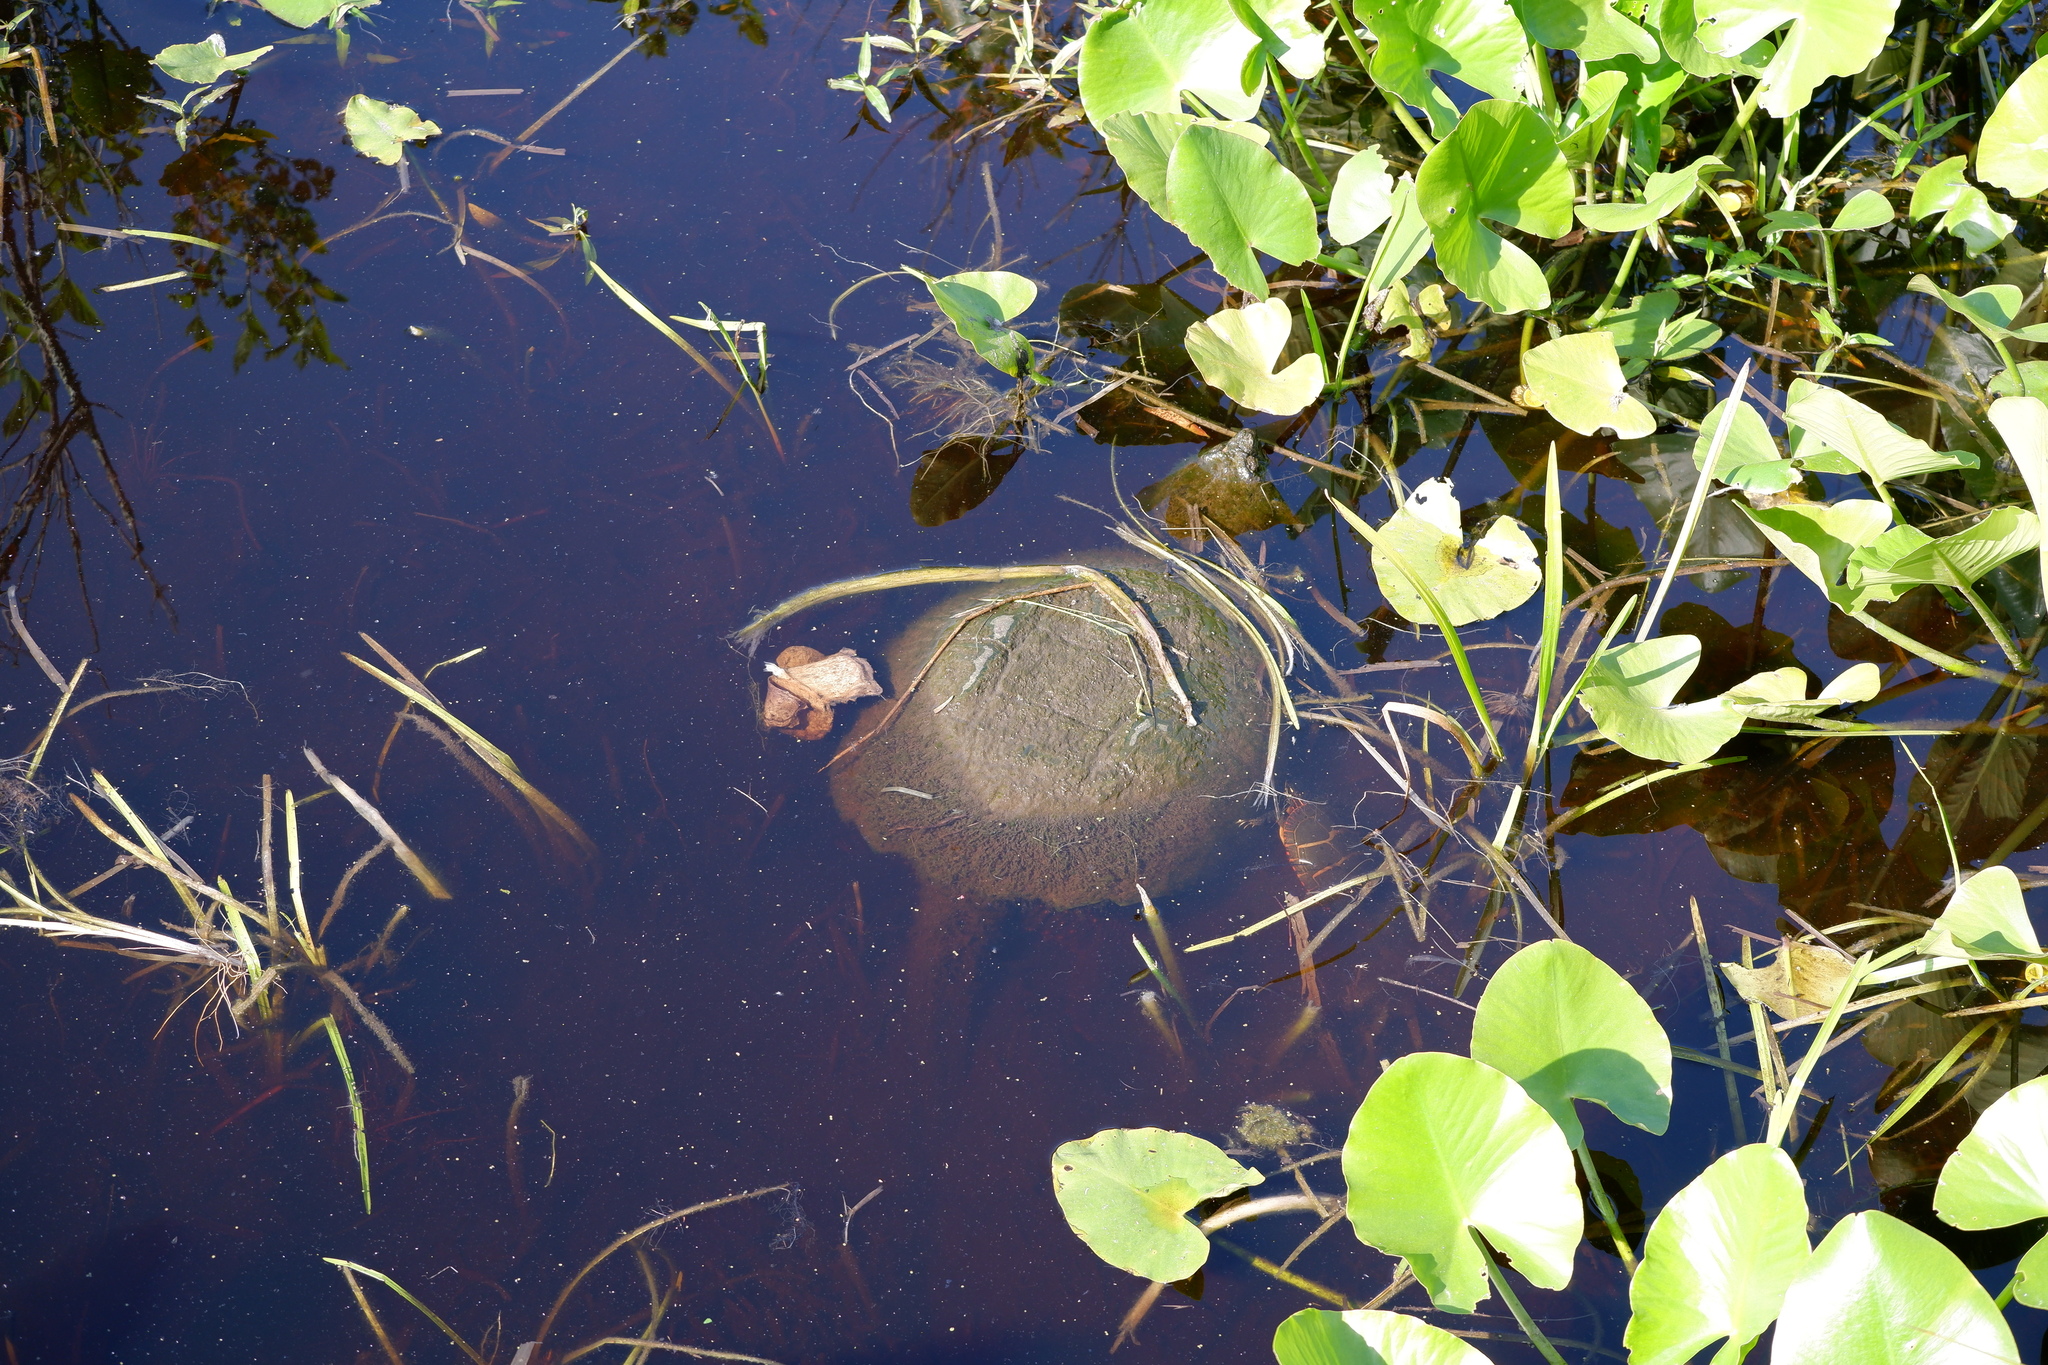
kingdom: Animalia
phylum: Chordata
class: Testudines
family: Chelydridae
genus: Chelydra
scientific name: Chelydra serpentina
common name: Common snapping turtle
